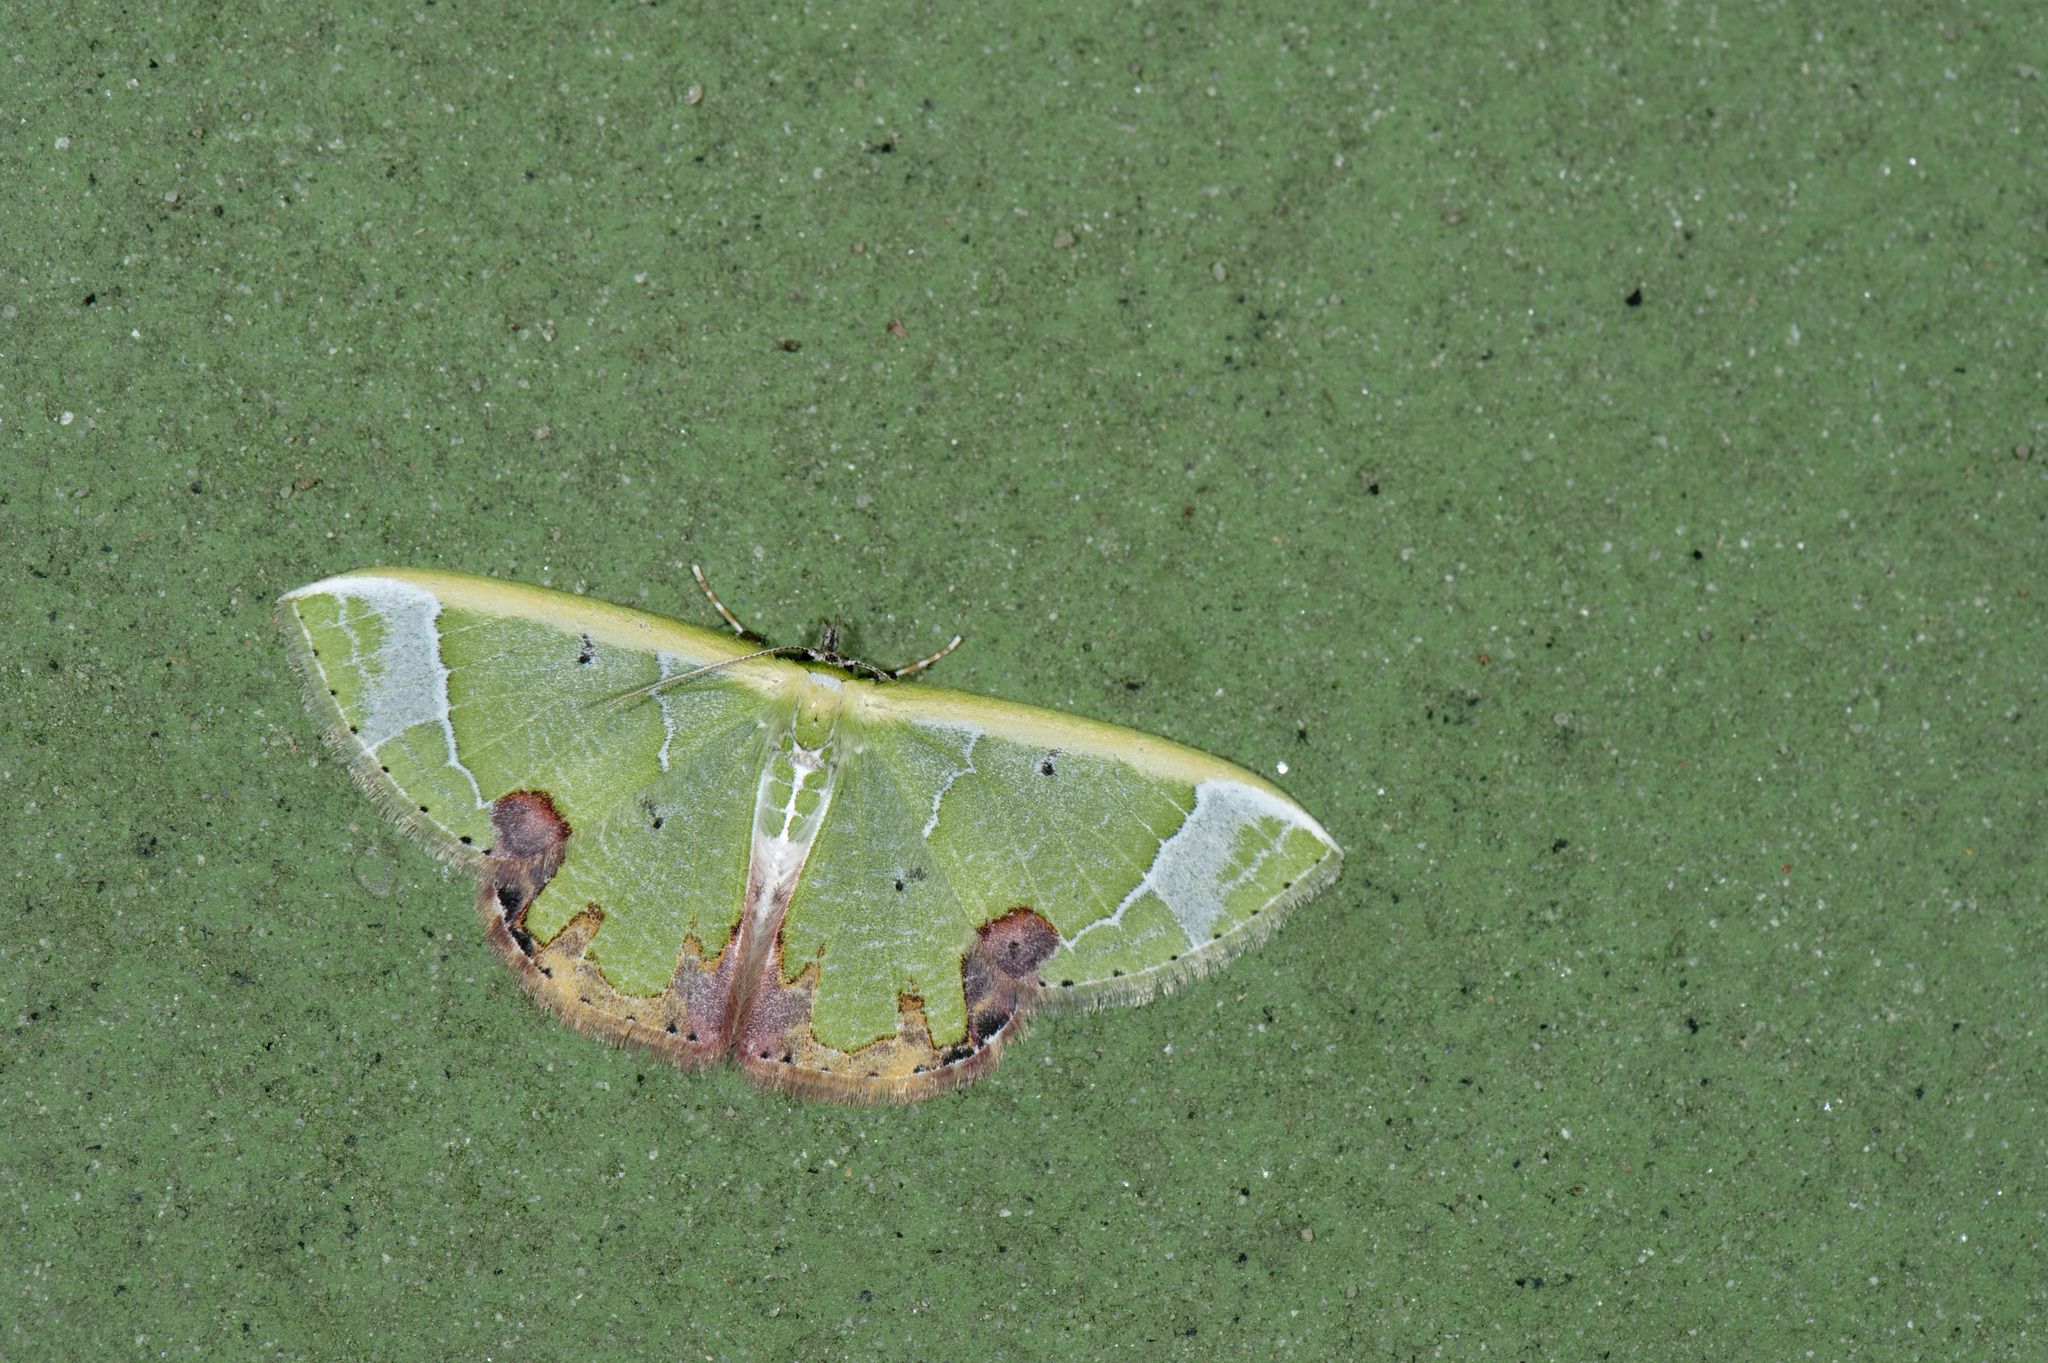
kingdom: Animalia
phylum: Arthropoda
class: Insecta
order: Lepidoptera
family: Geometridae
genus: Comibaena
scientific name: Comibaena pictipennis
